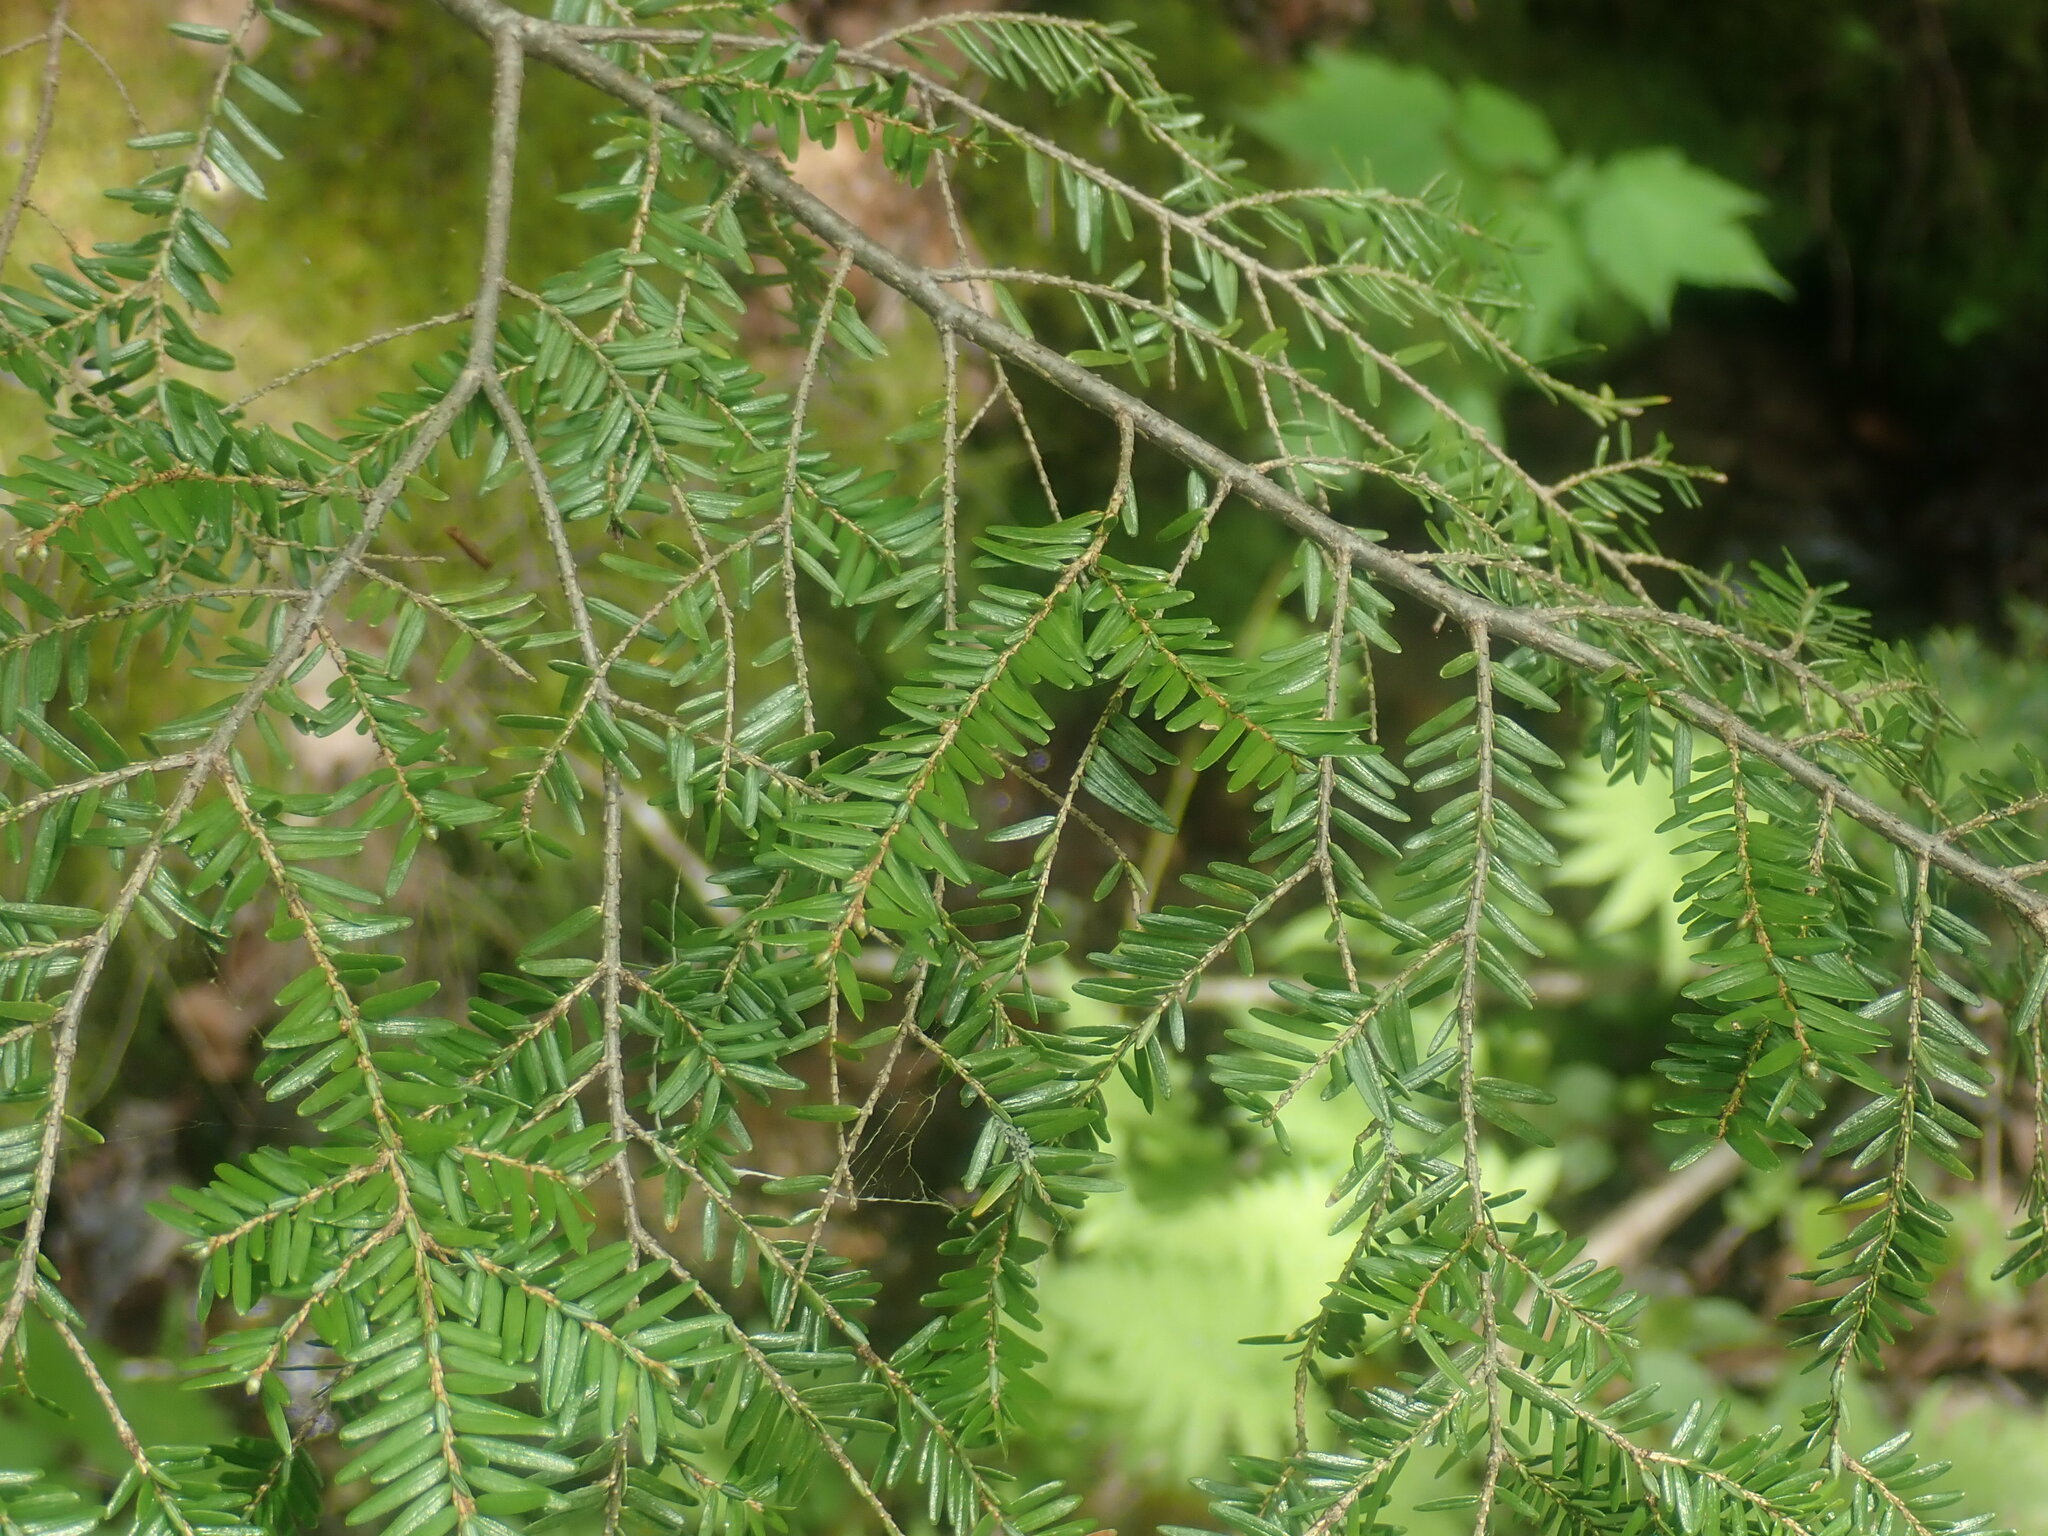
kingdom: Plantae
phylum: Tracheophyta
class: Pinopsida
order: Pinales
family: Pinaceae
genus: Tsuga
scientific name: Tsuga canadensis
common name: Eastern hemlock
